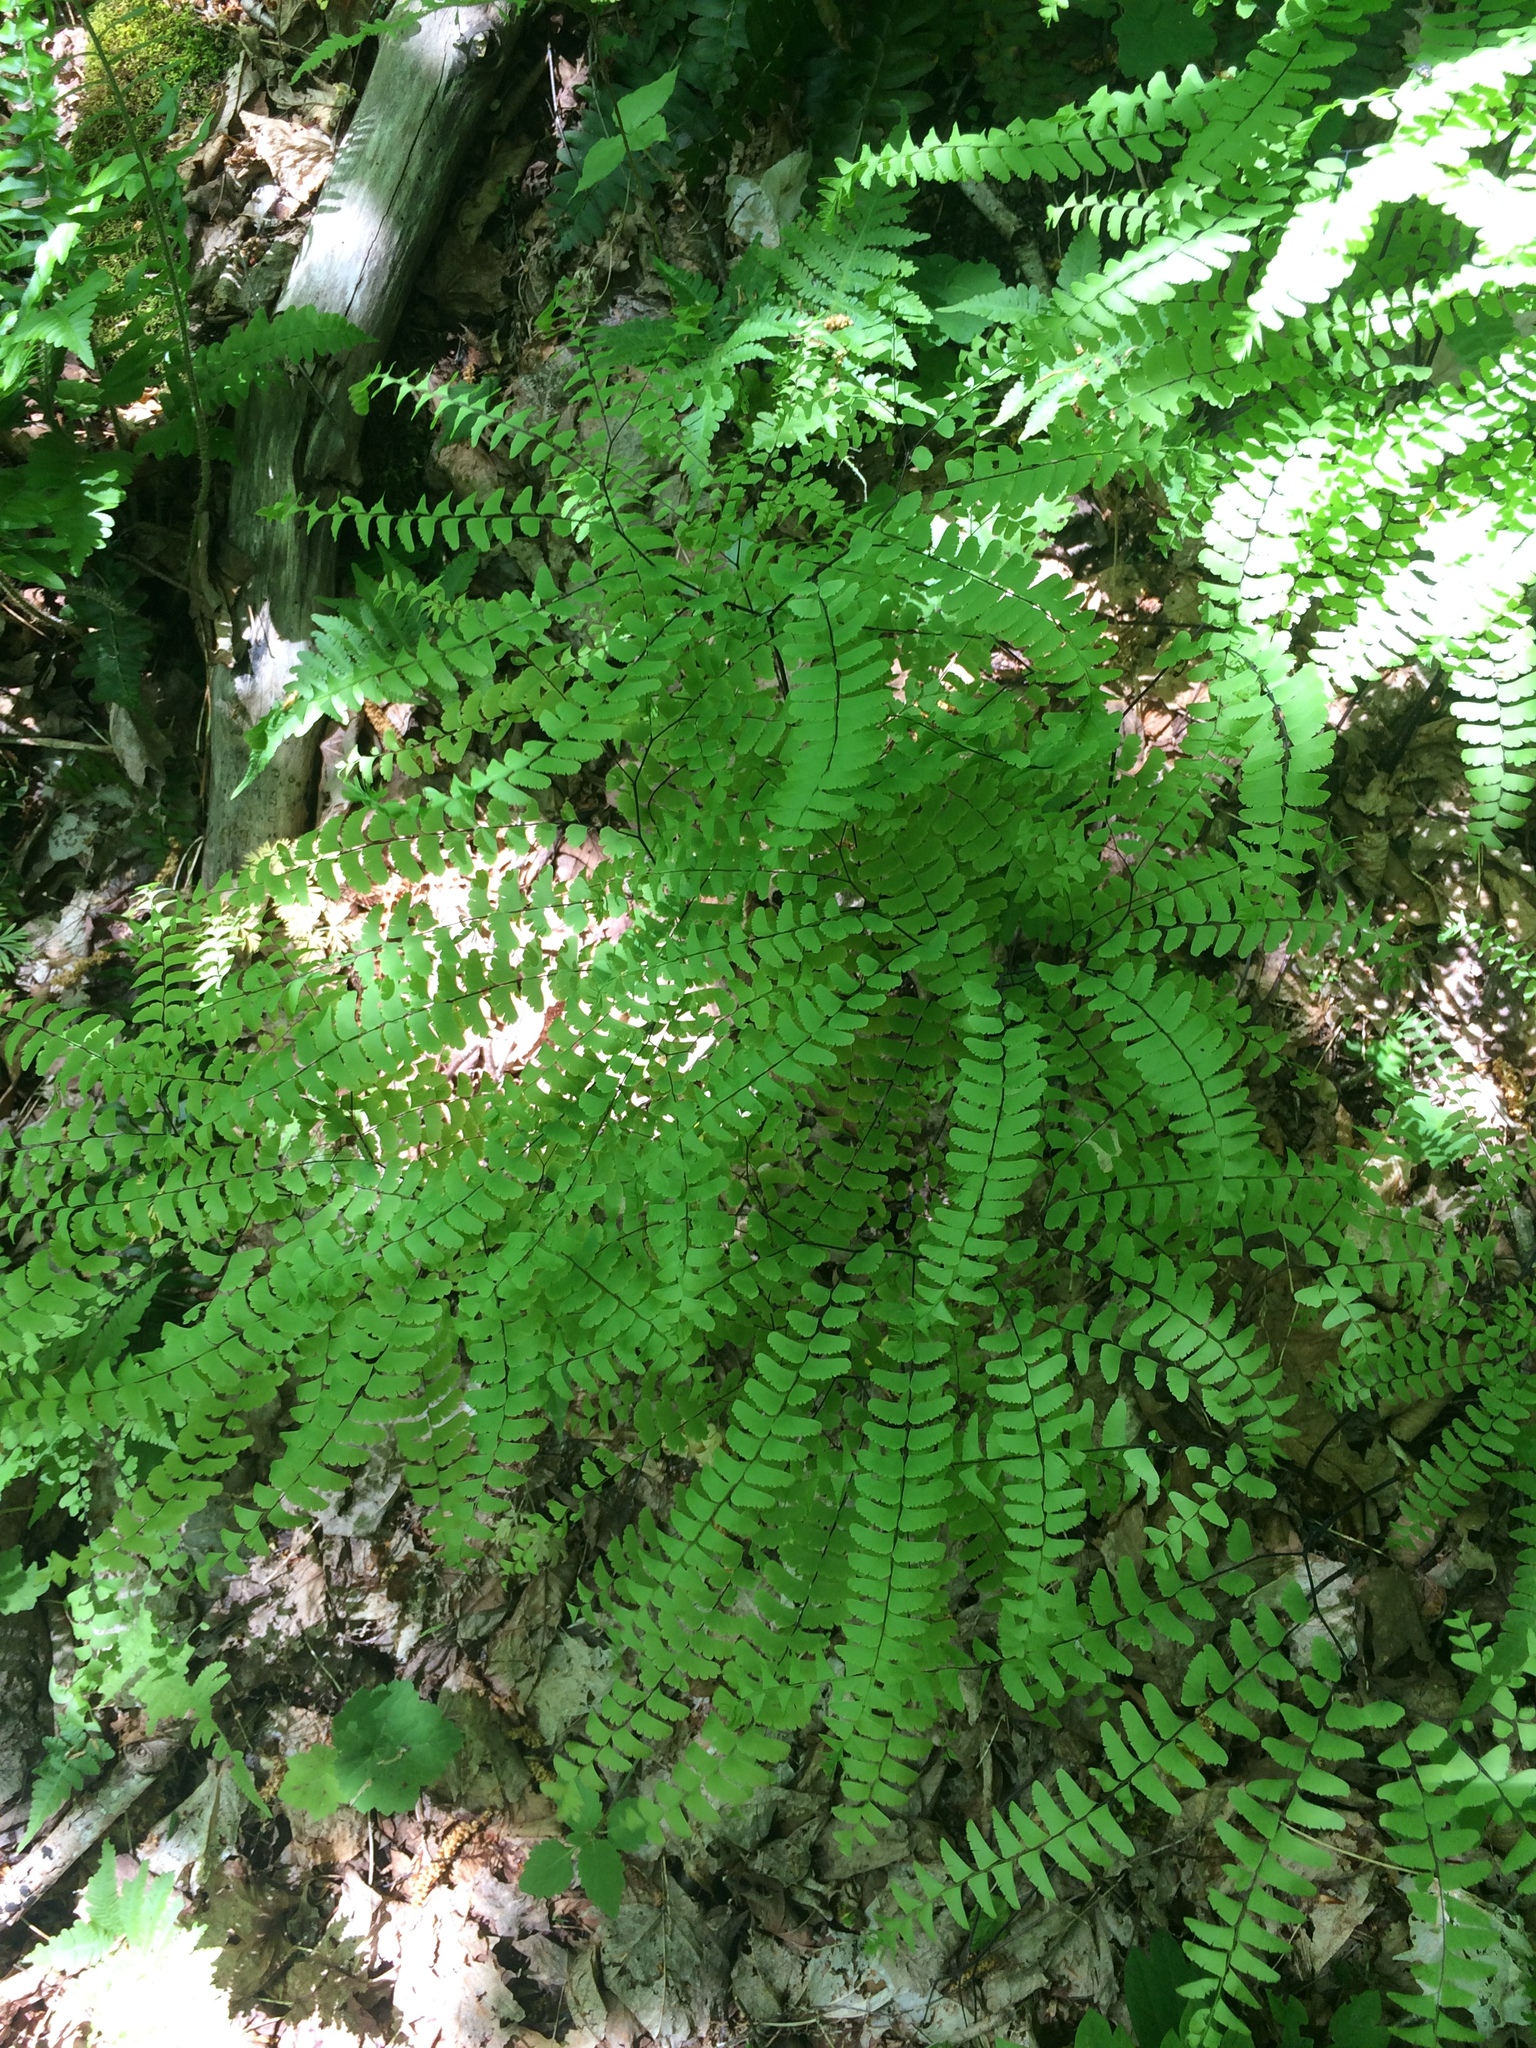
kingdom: Plantae
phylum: Tracheophyta
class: Polypodiopsida
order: Polypodiales
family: Pteridaceae
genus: Adiantum
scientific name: Adiantum pedatum
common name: Five-finger fern
